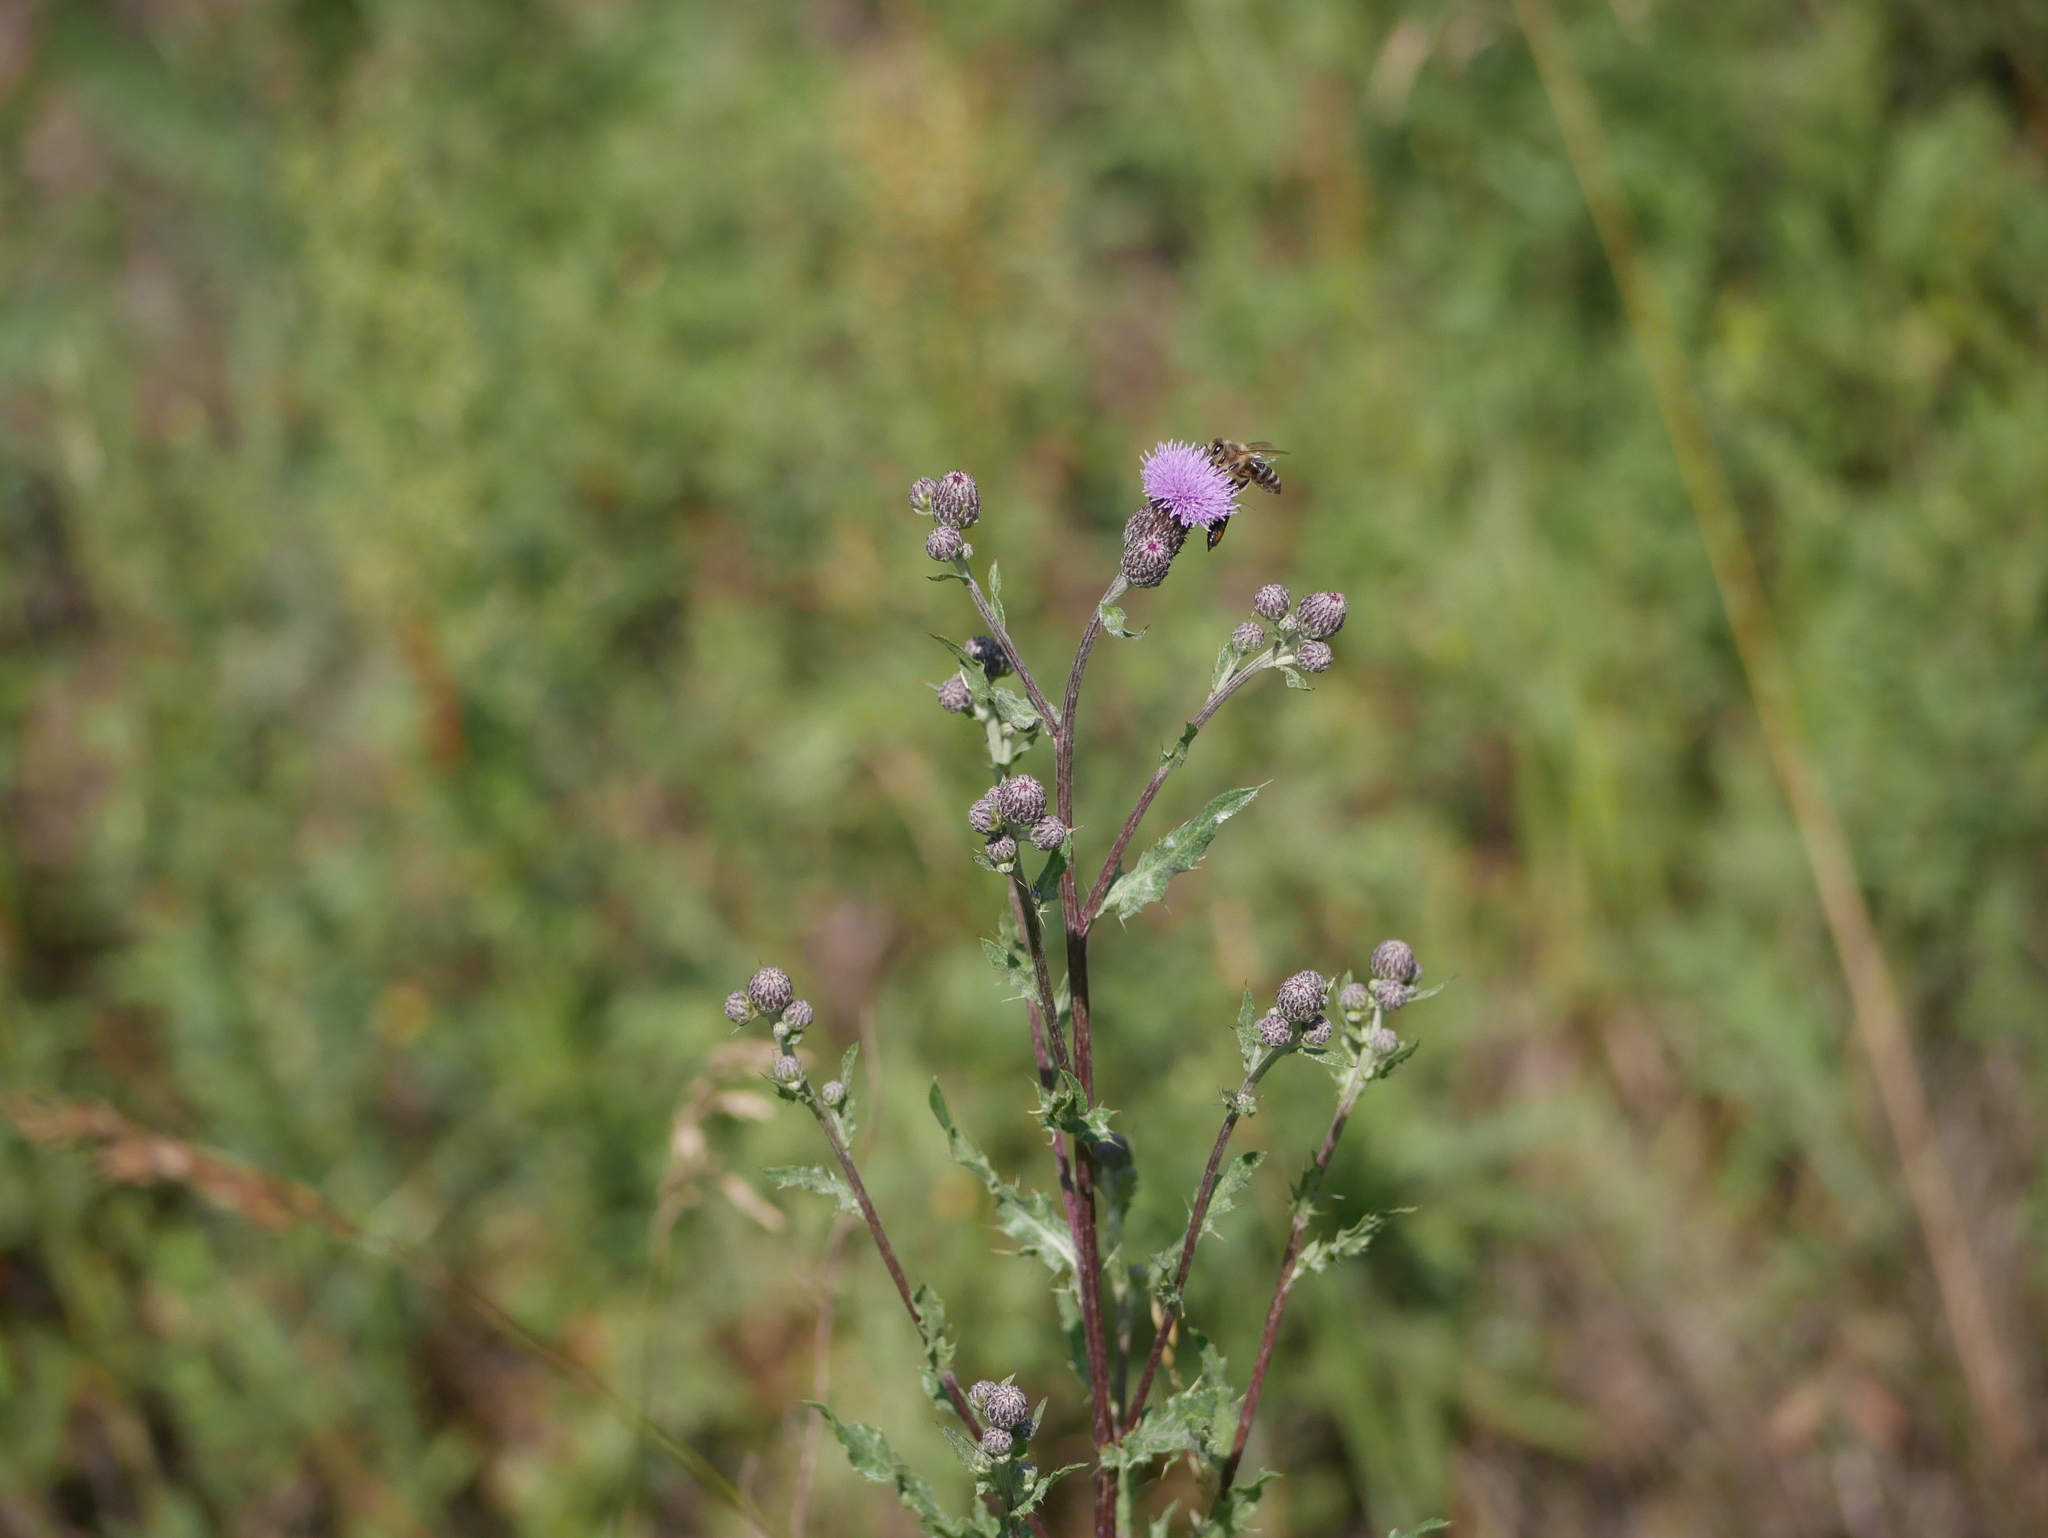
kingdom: Plantae
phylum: Tracheophyta
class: Magnoliopsida
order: Asterales
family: Asteraceae
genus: Cirsium
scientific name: Cirsium arvense
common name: Creeping thistle
